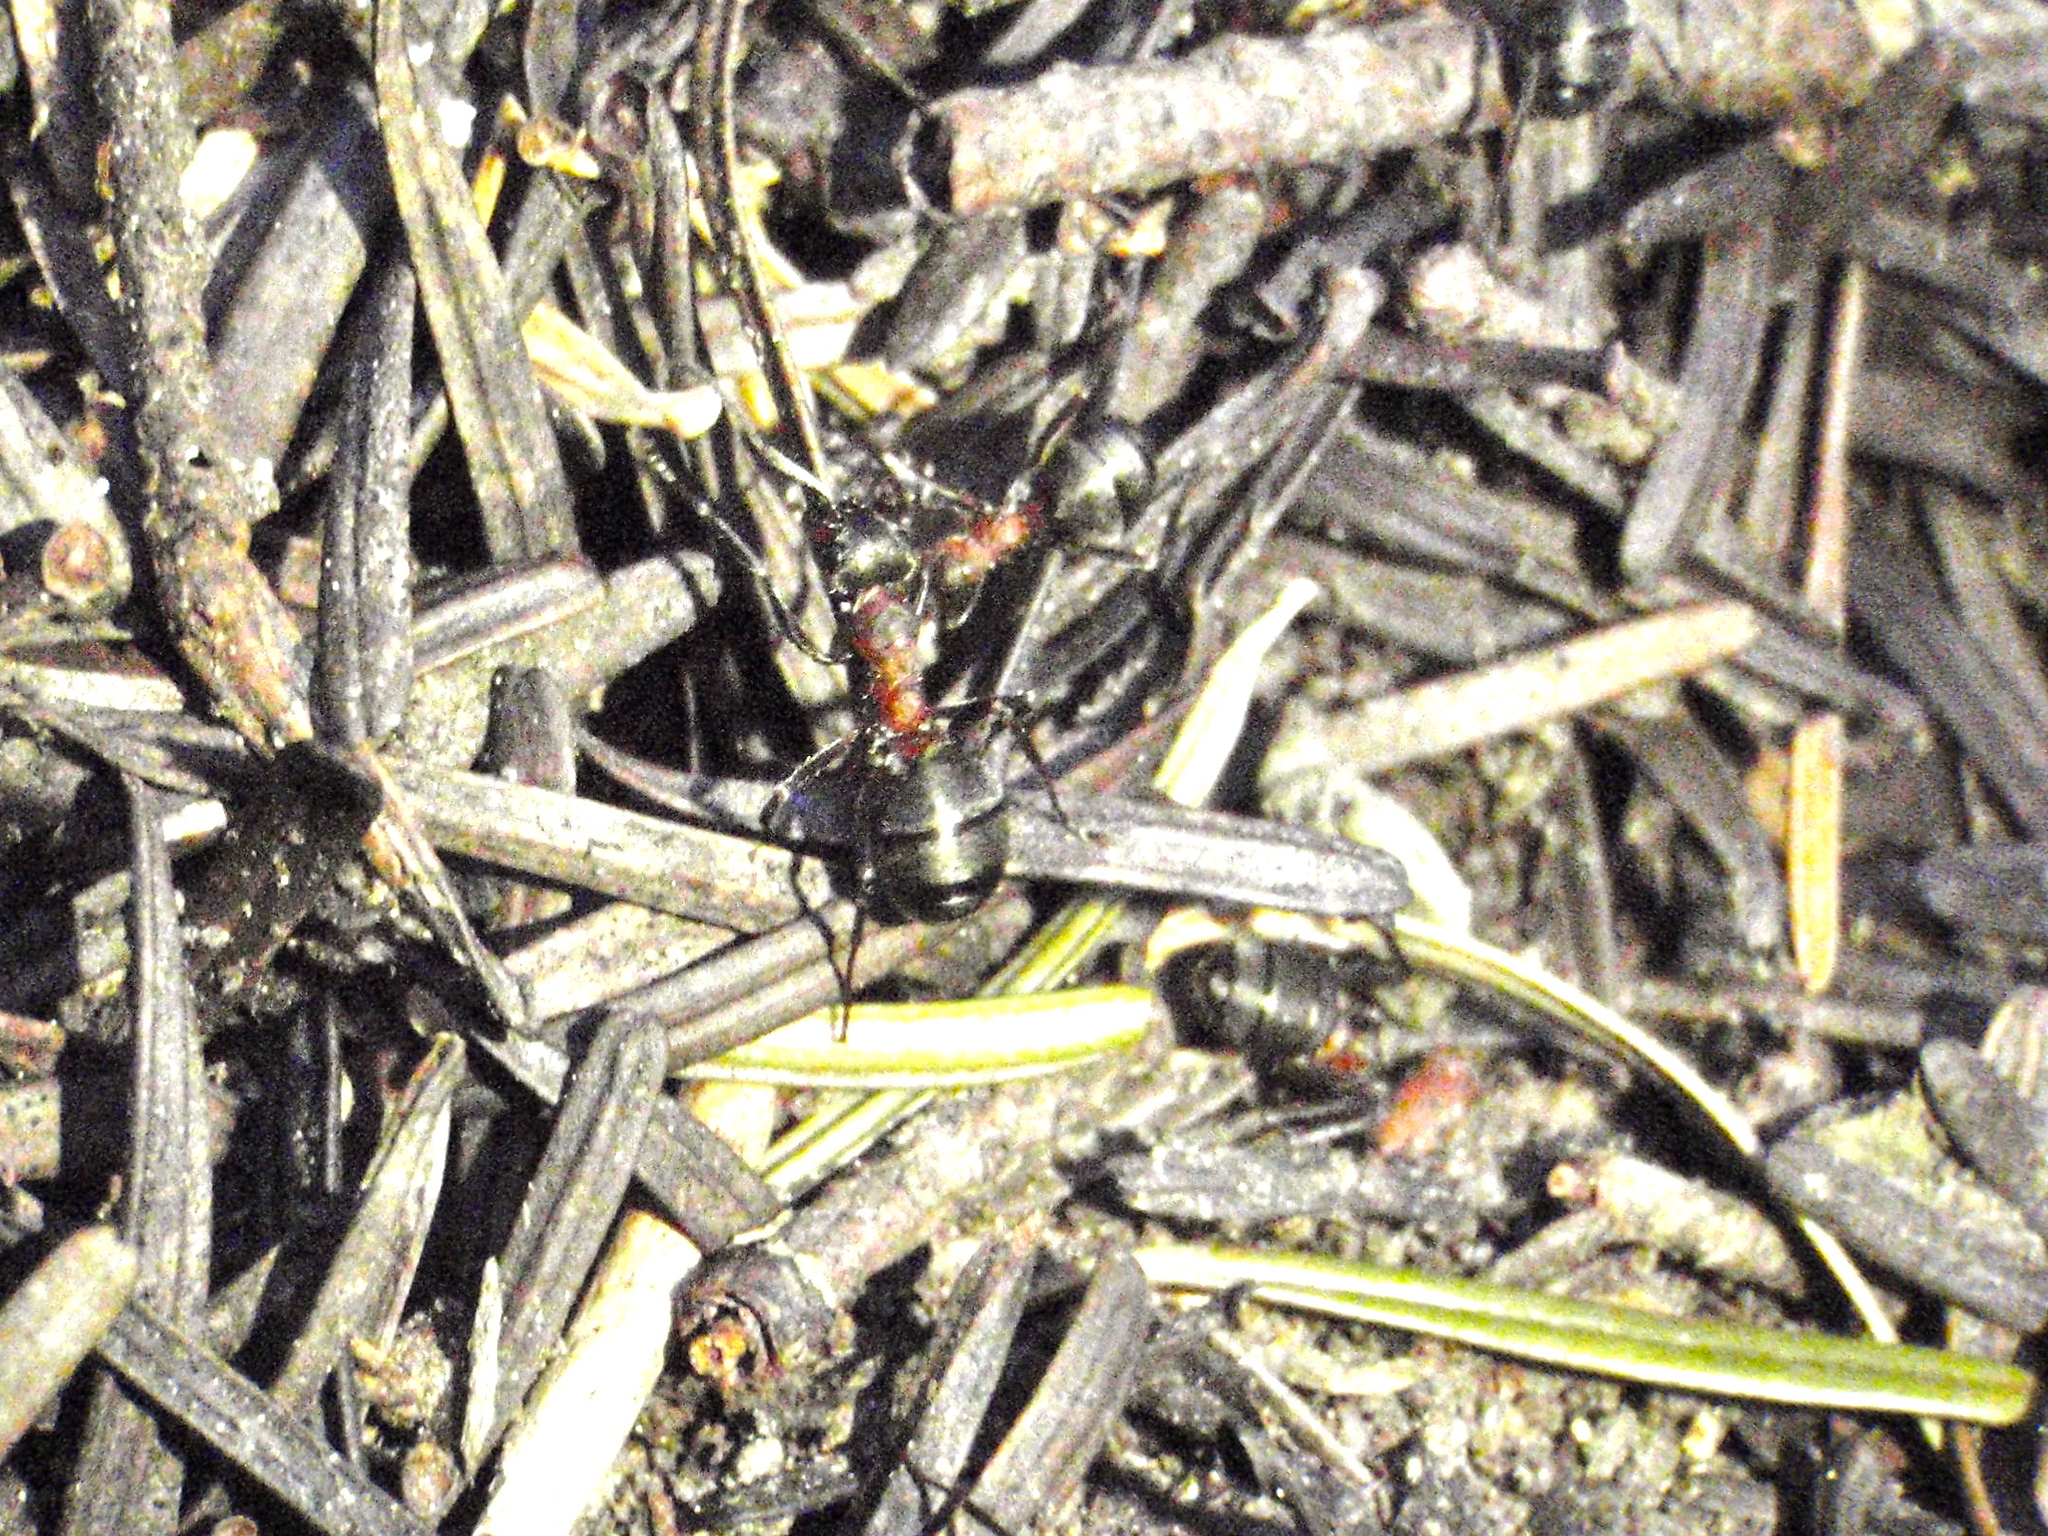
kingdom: Animalia
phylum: Arthropoda
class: Insecta
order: Hymenoptera
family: Formicidae
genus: Formica
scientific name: Formica rufa
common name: Red wood ant
